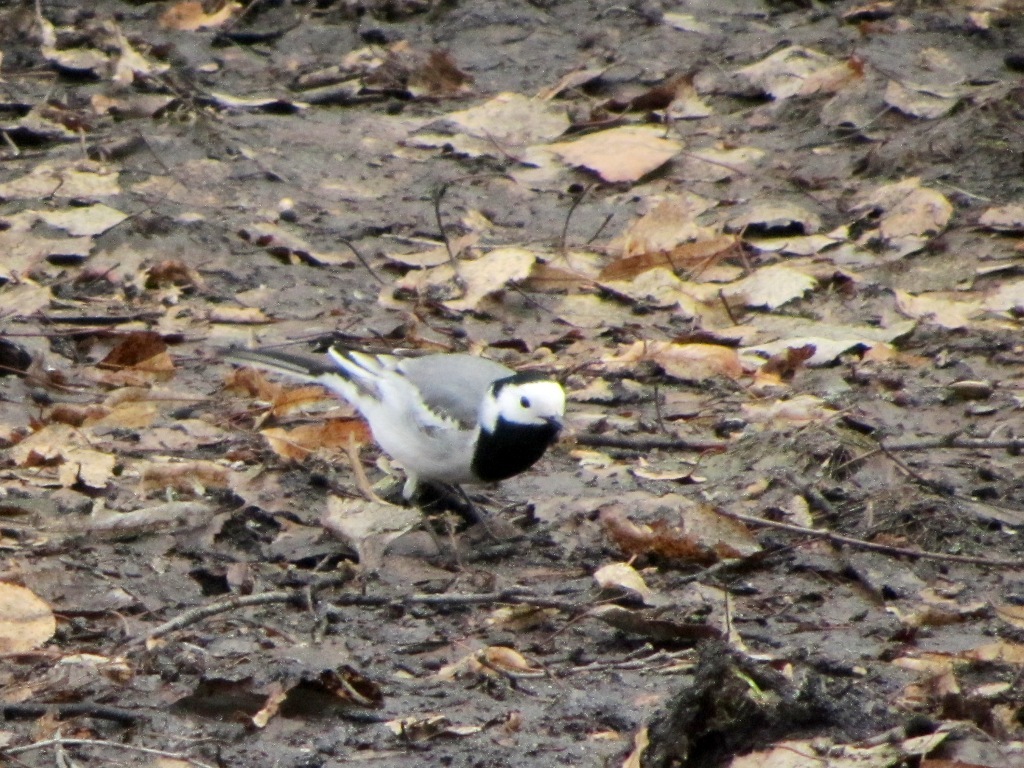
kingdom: Animalia
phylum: Chordata
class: Aves
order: Passeriformes
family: Motacillidae
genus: Motacilla
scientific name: Motacilla alba
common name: White wagtail
